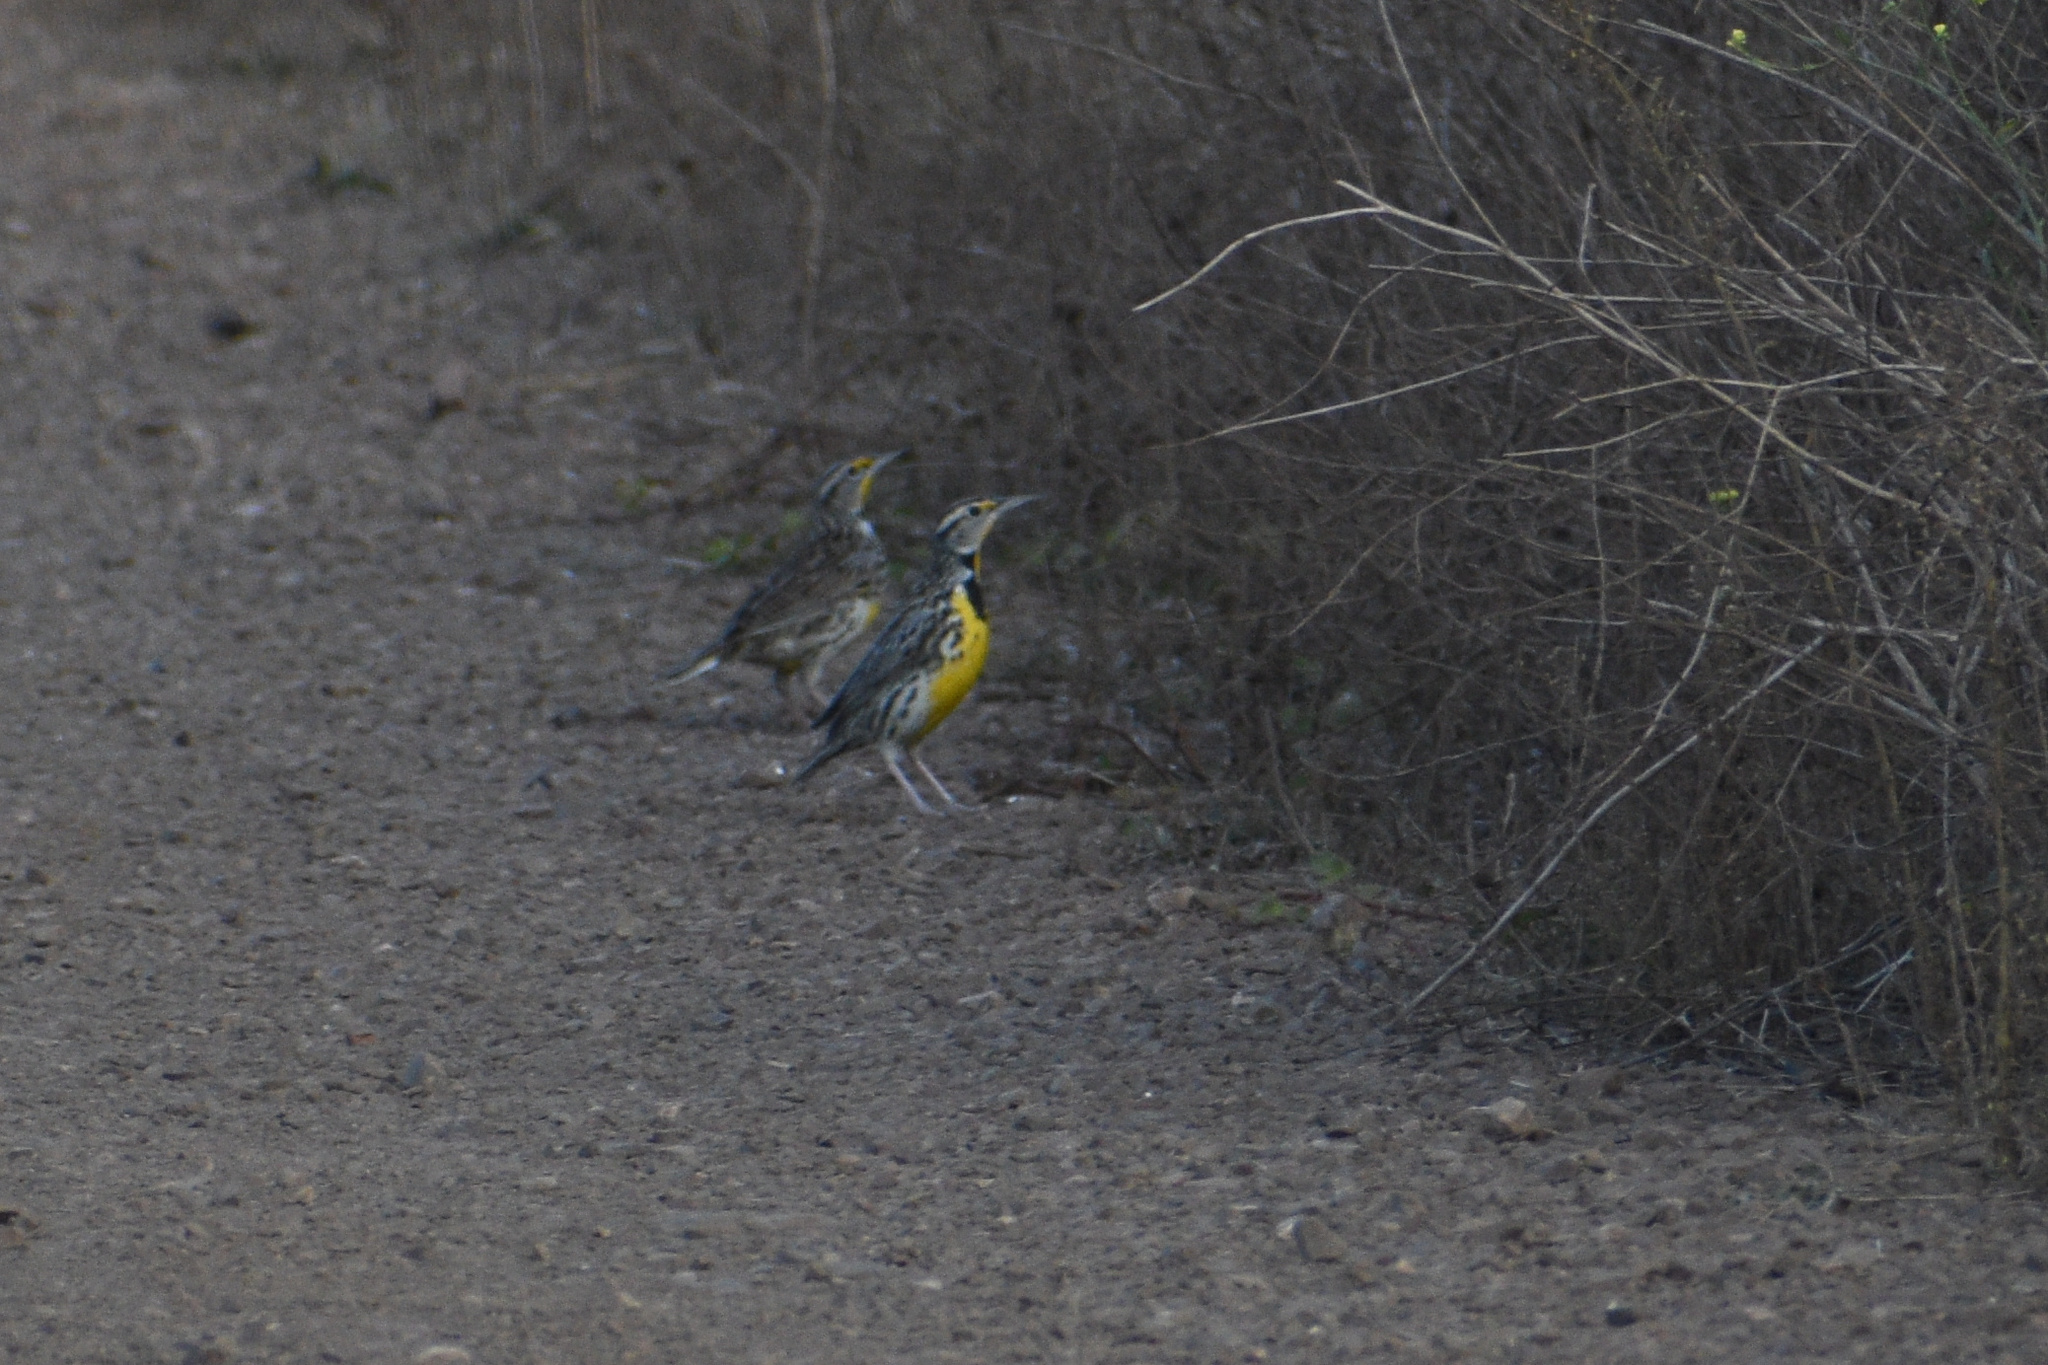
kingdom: Animalia
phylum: Chordata
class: Aves
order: Passeriformes
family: Icteridae
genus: Sturnella
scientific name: Sturnella neglecta
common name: Western meadowlark
